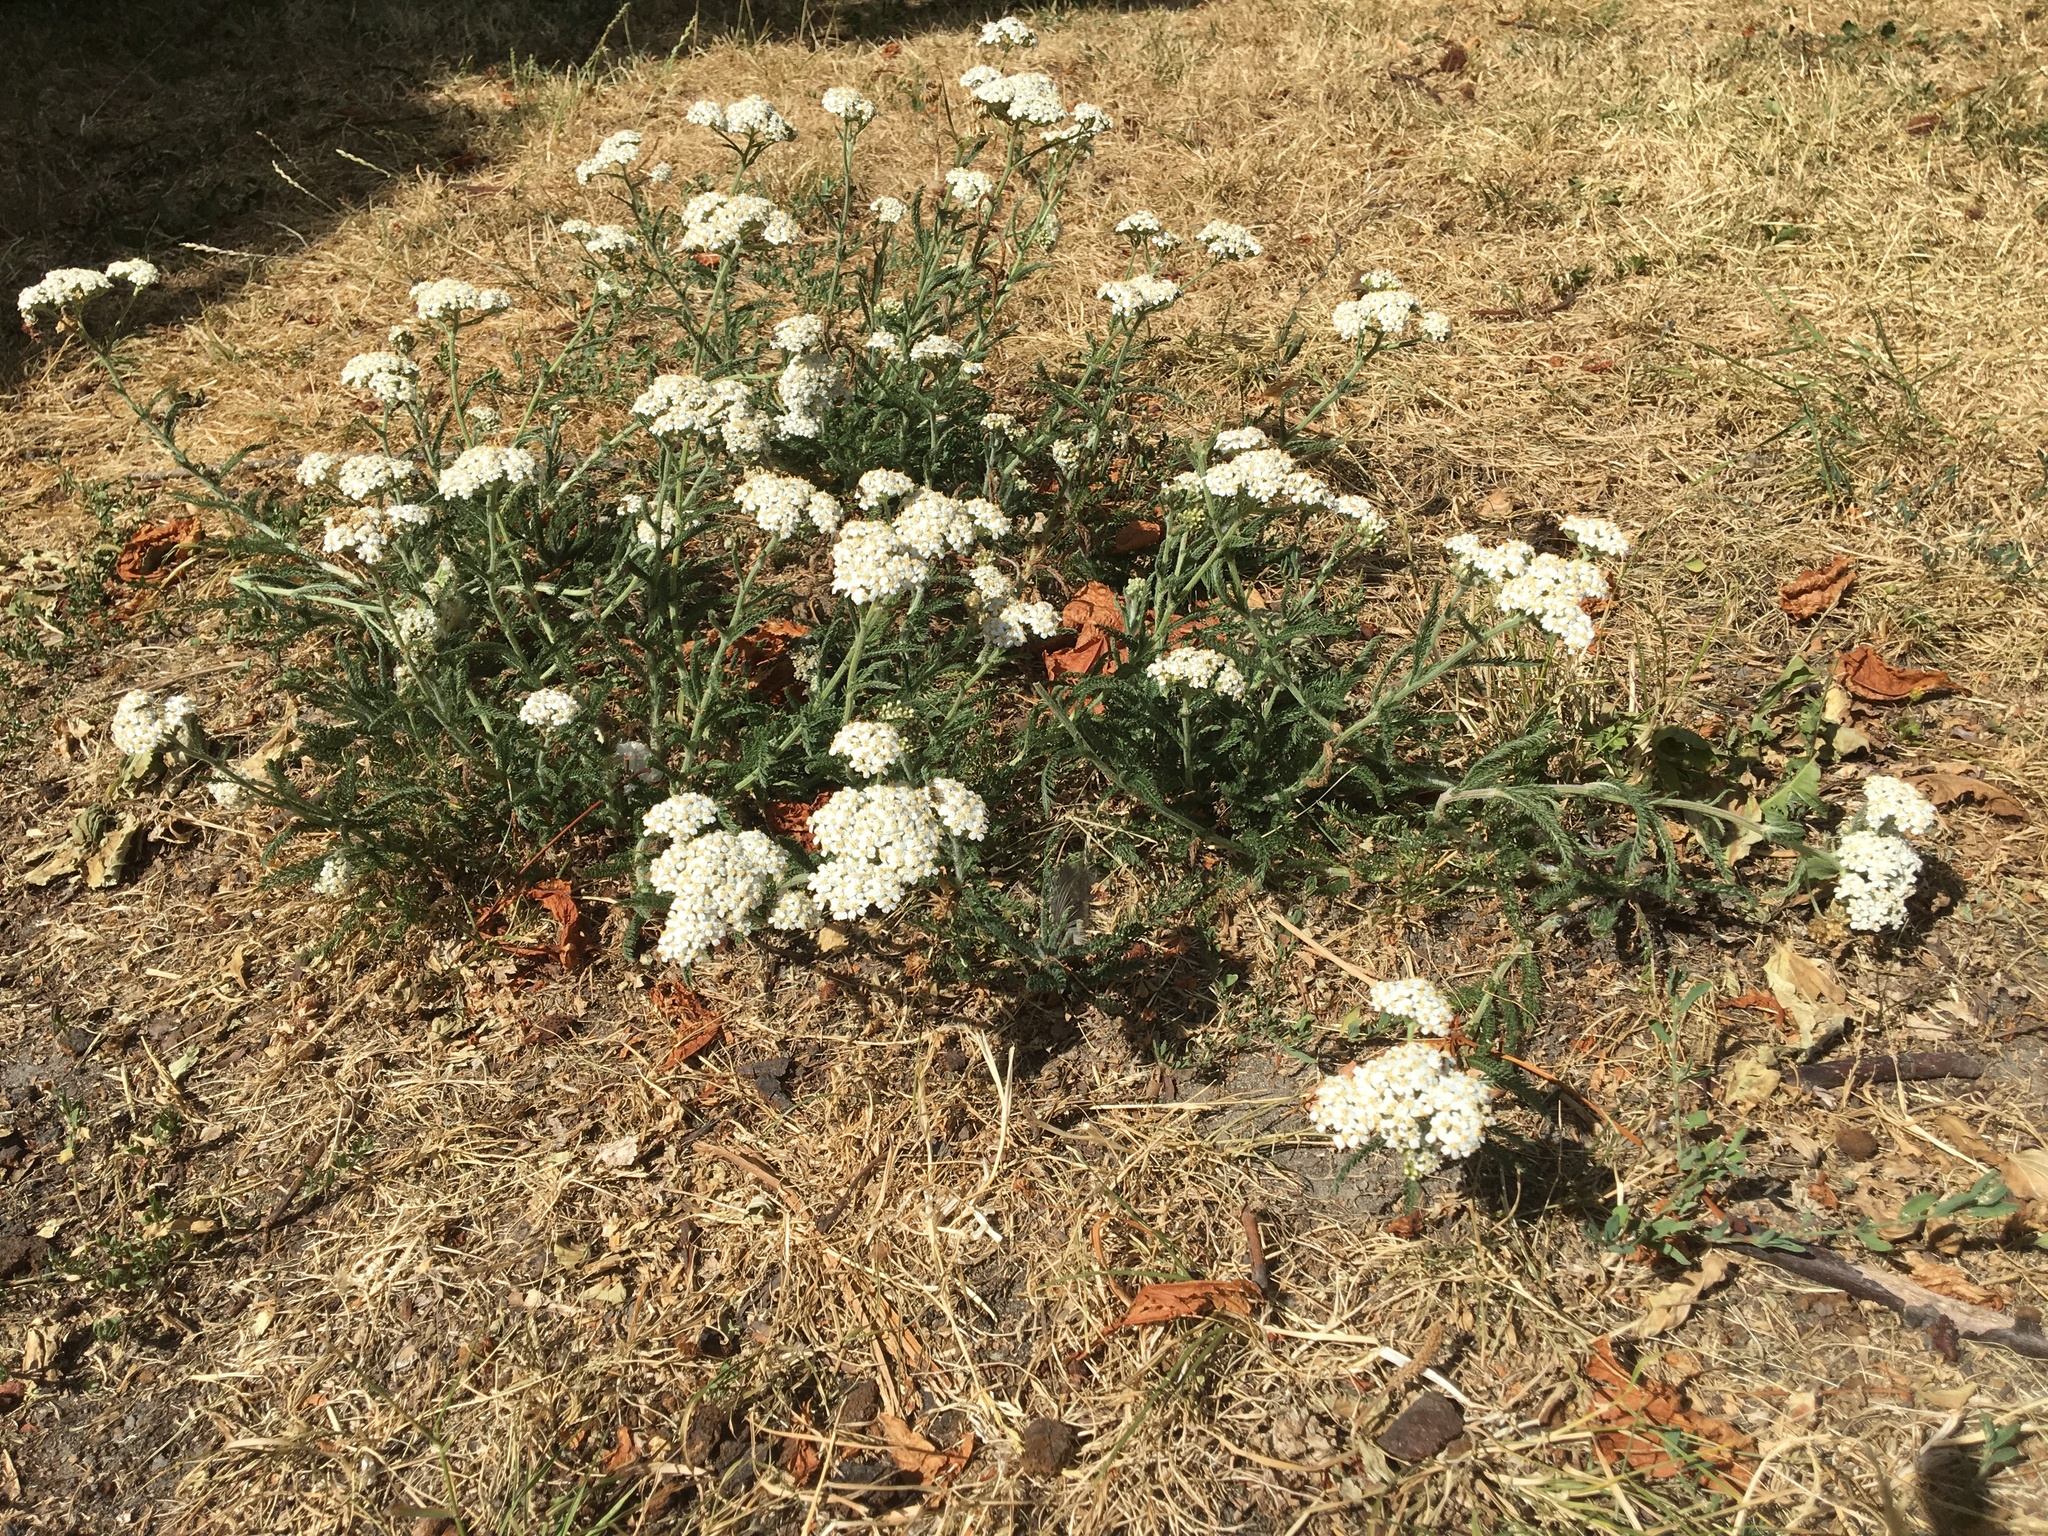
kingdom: Plantae
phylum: Tracheophyta
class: Magnoliopsida
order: Asterales
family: Asteraceae
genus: Achillea
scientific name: Achillea millefolium
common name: Yarrow
